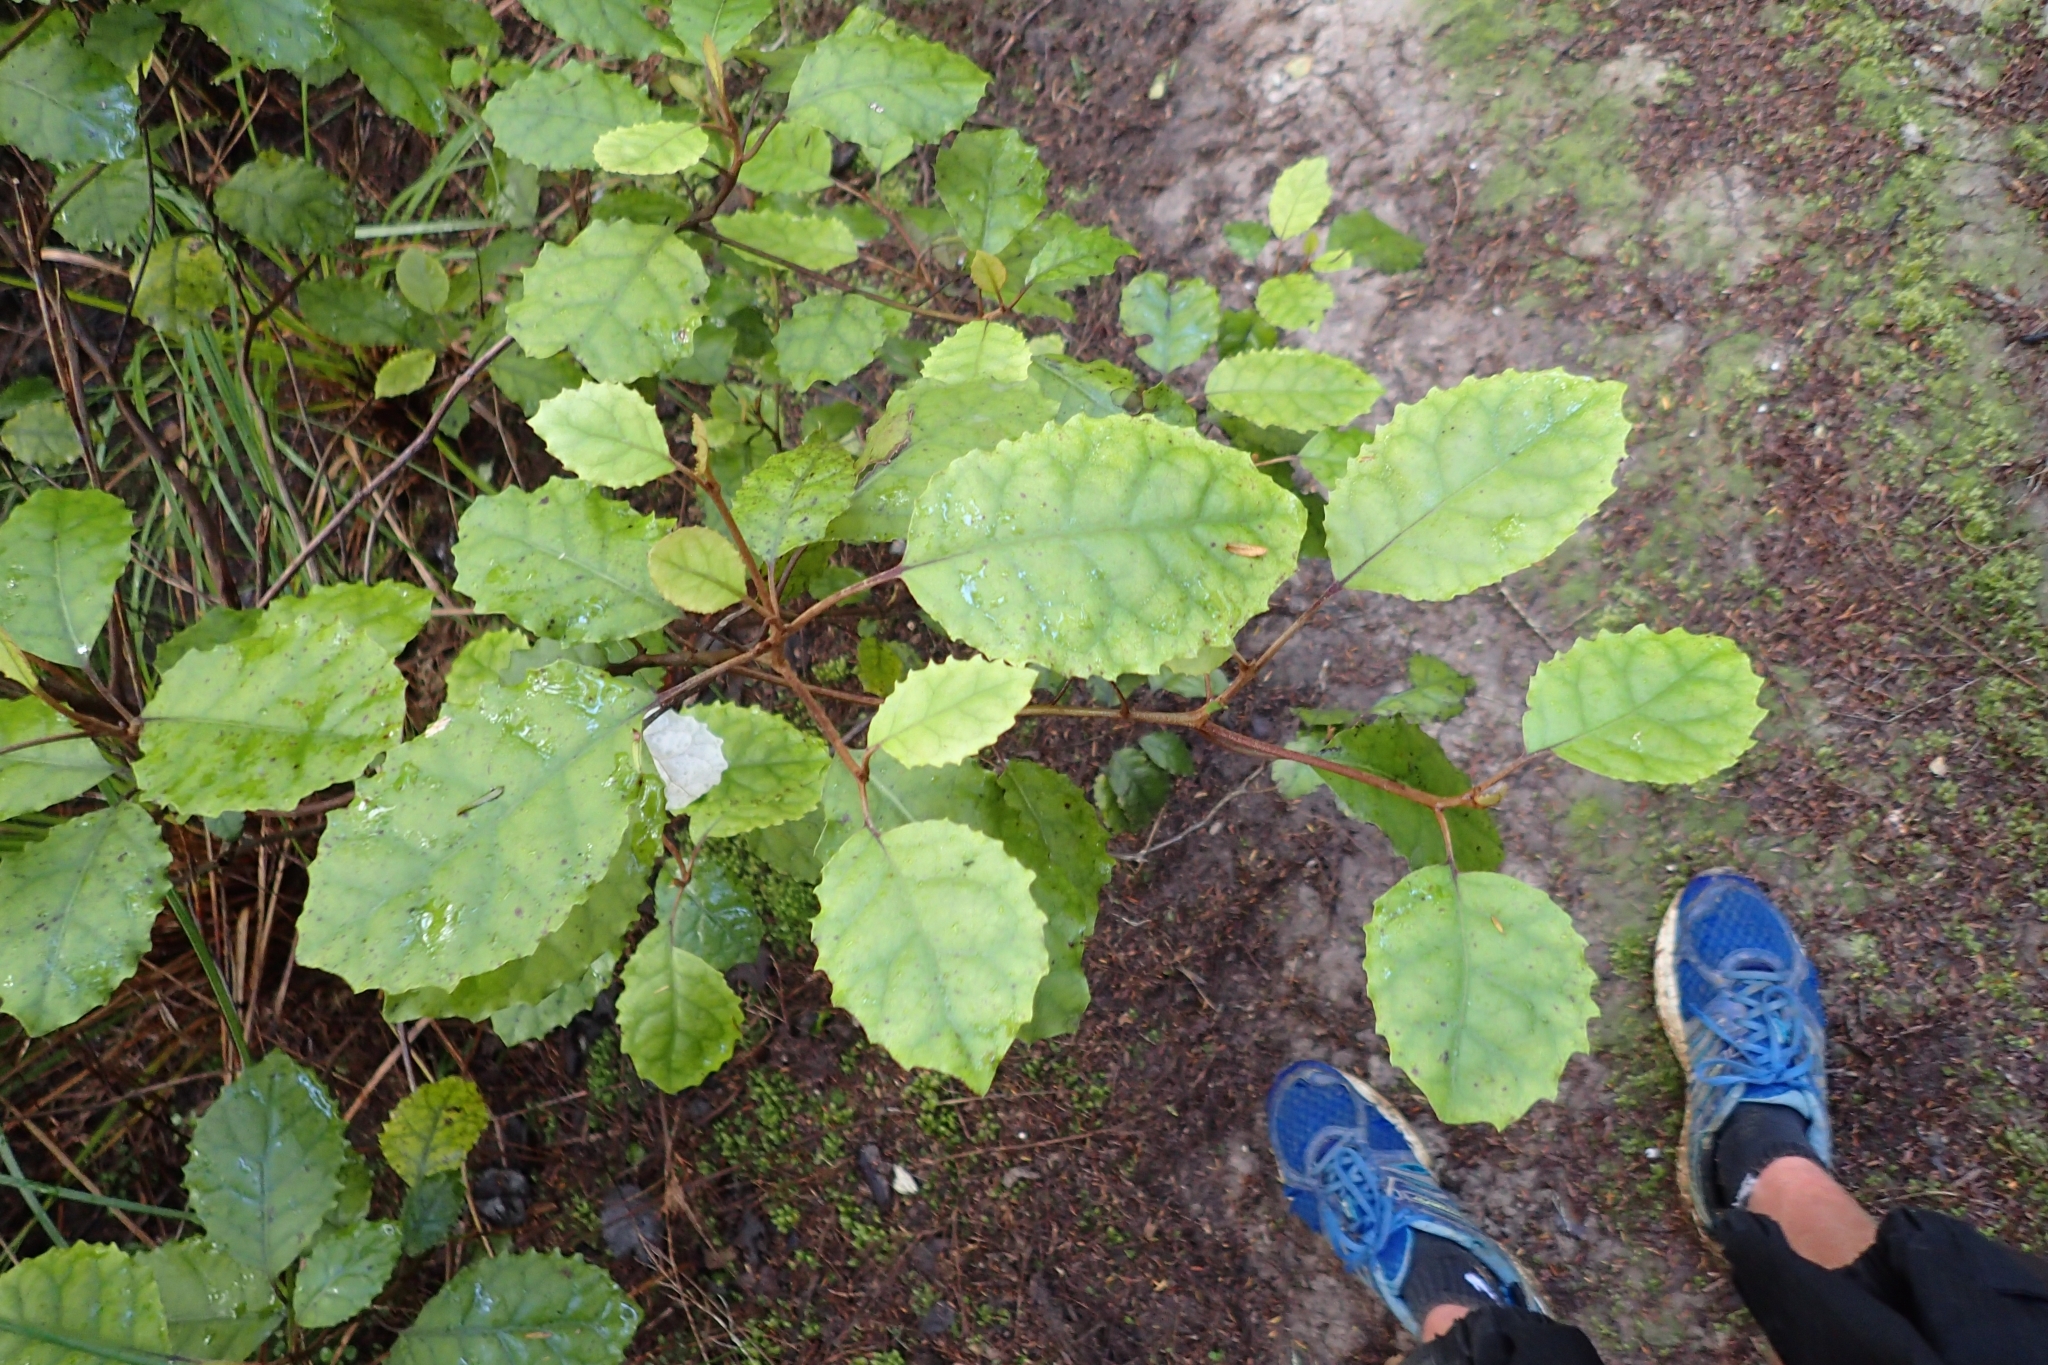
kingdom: Plantae
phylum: Tracheophyta
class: Magnoliopsida
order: Asterales
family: Asteraceae
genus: Olearia
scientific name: Olearia rani
